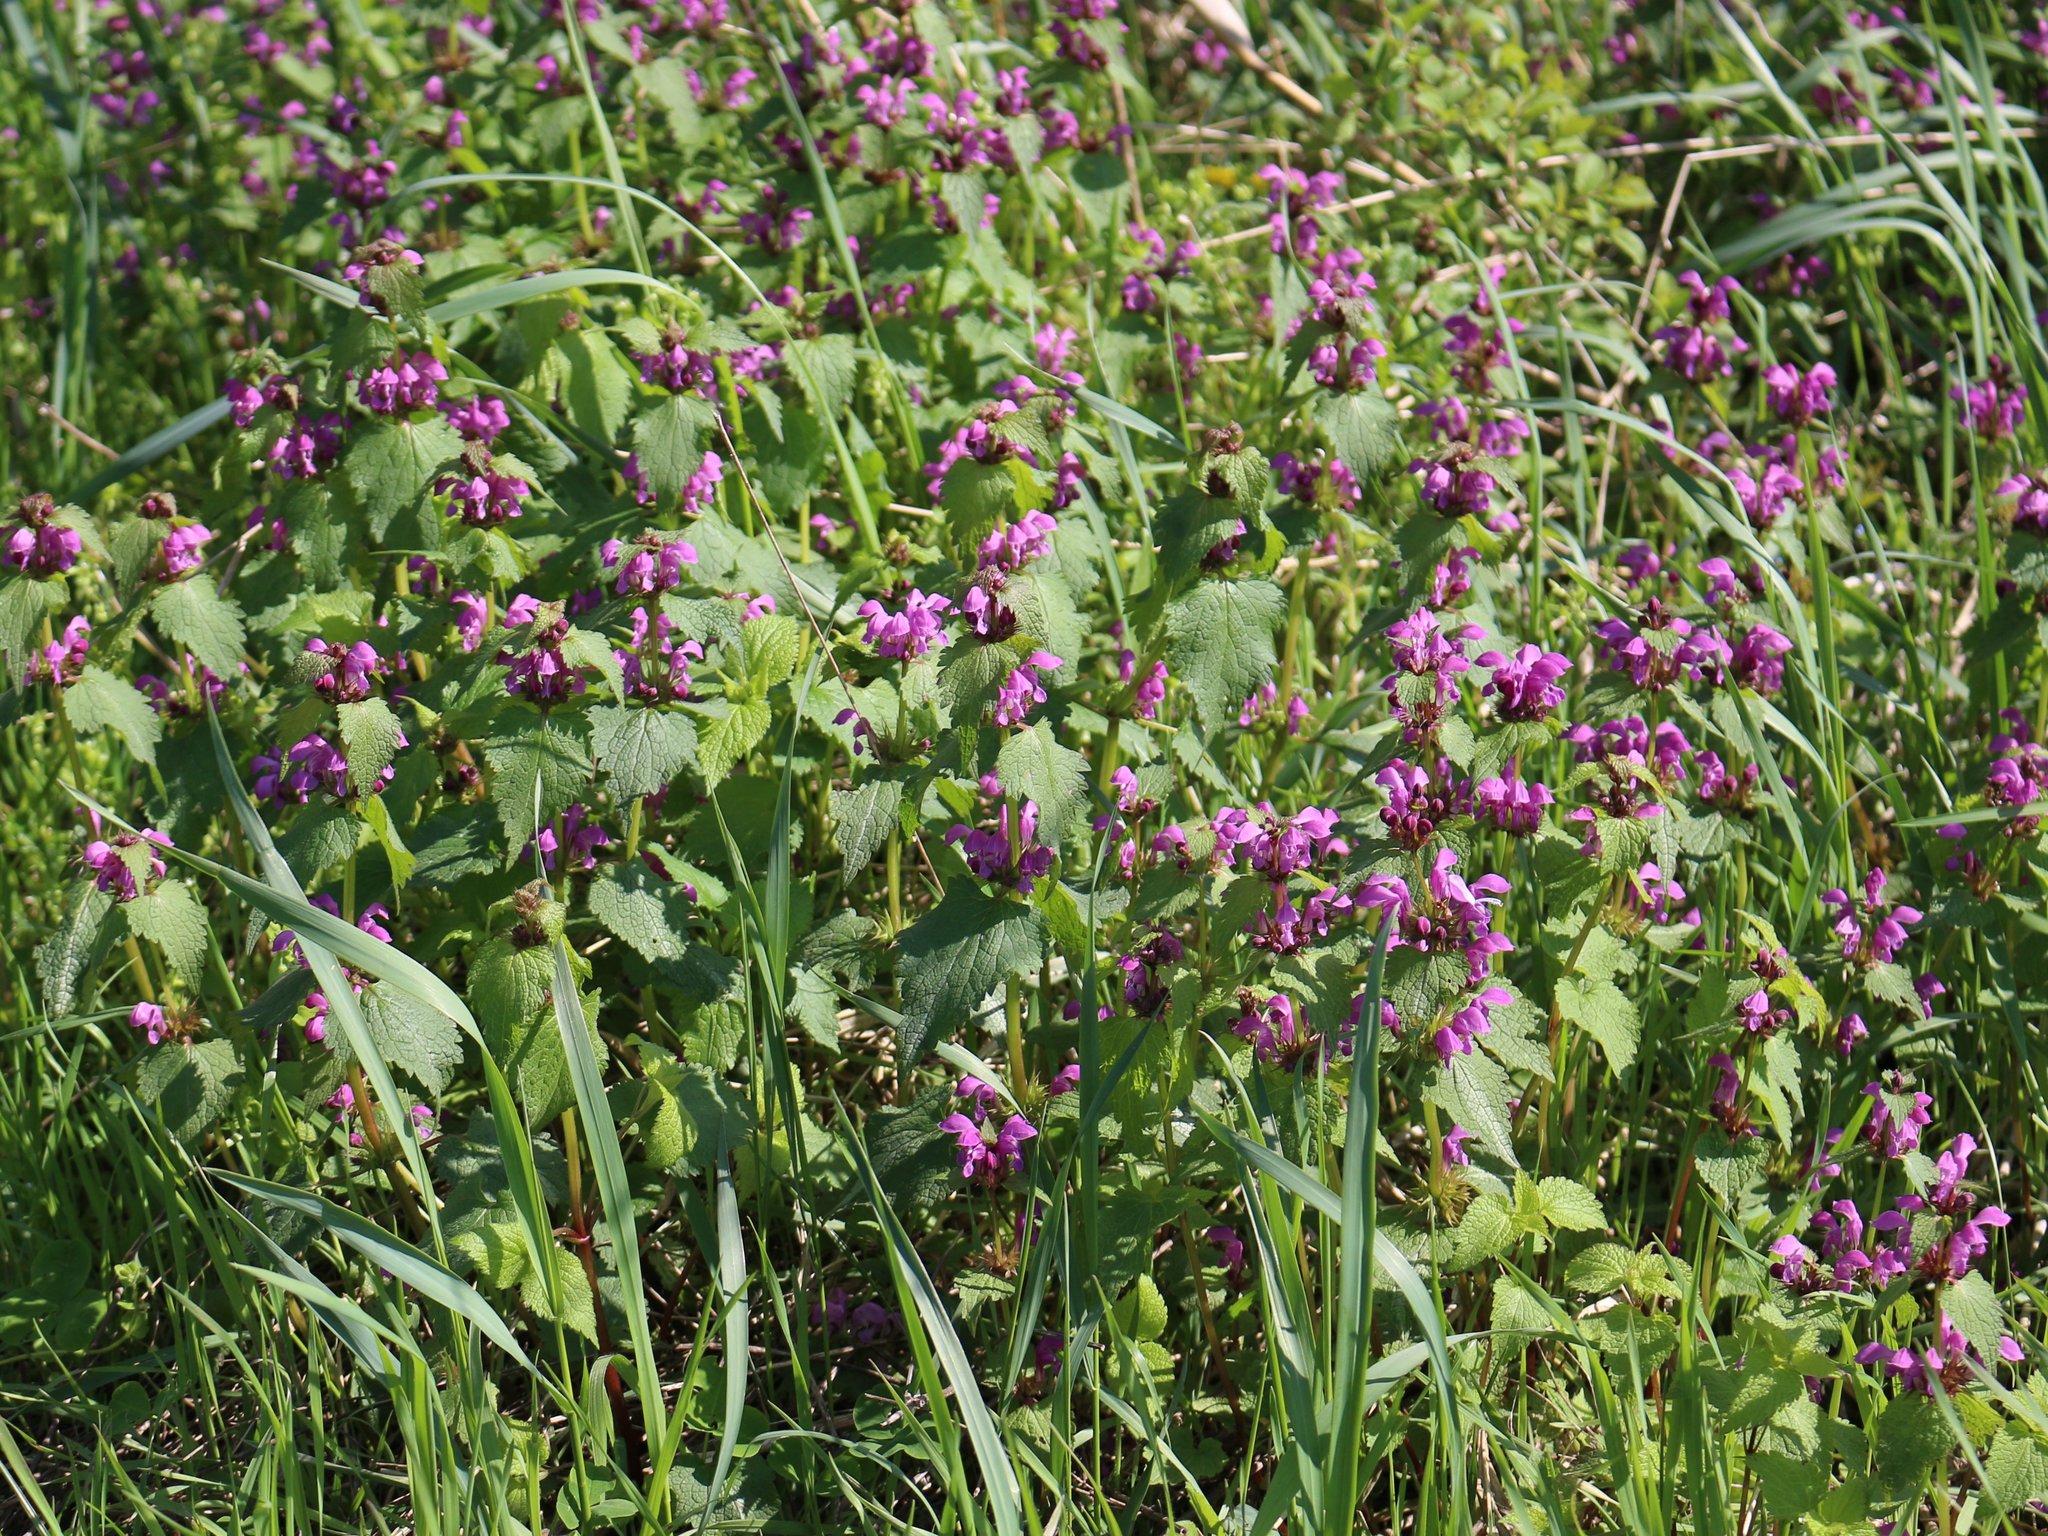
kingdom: Plantae
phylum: Tracheophyta
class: Magnoliopsida
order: Lamiales
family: Lamiaceae
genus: Lamium
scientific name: Lamium maculatum
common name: Spotted dead-nettle
